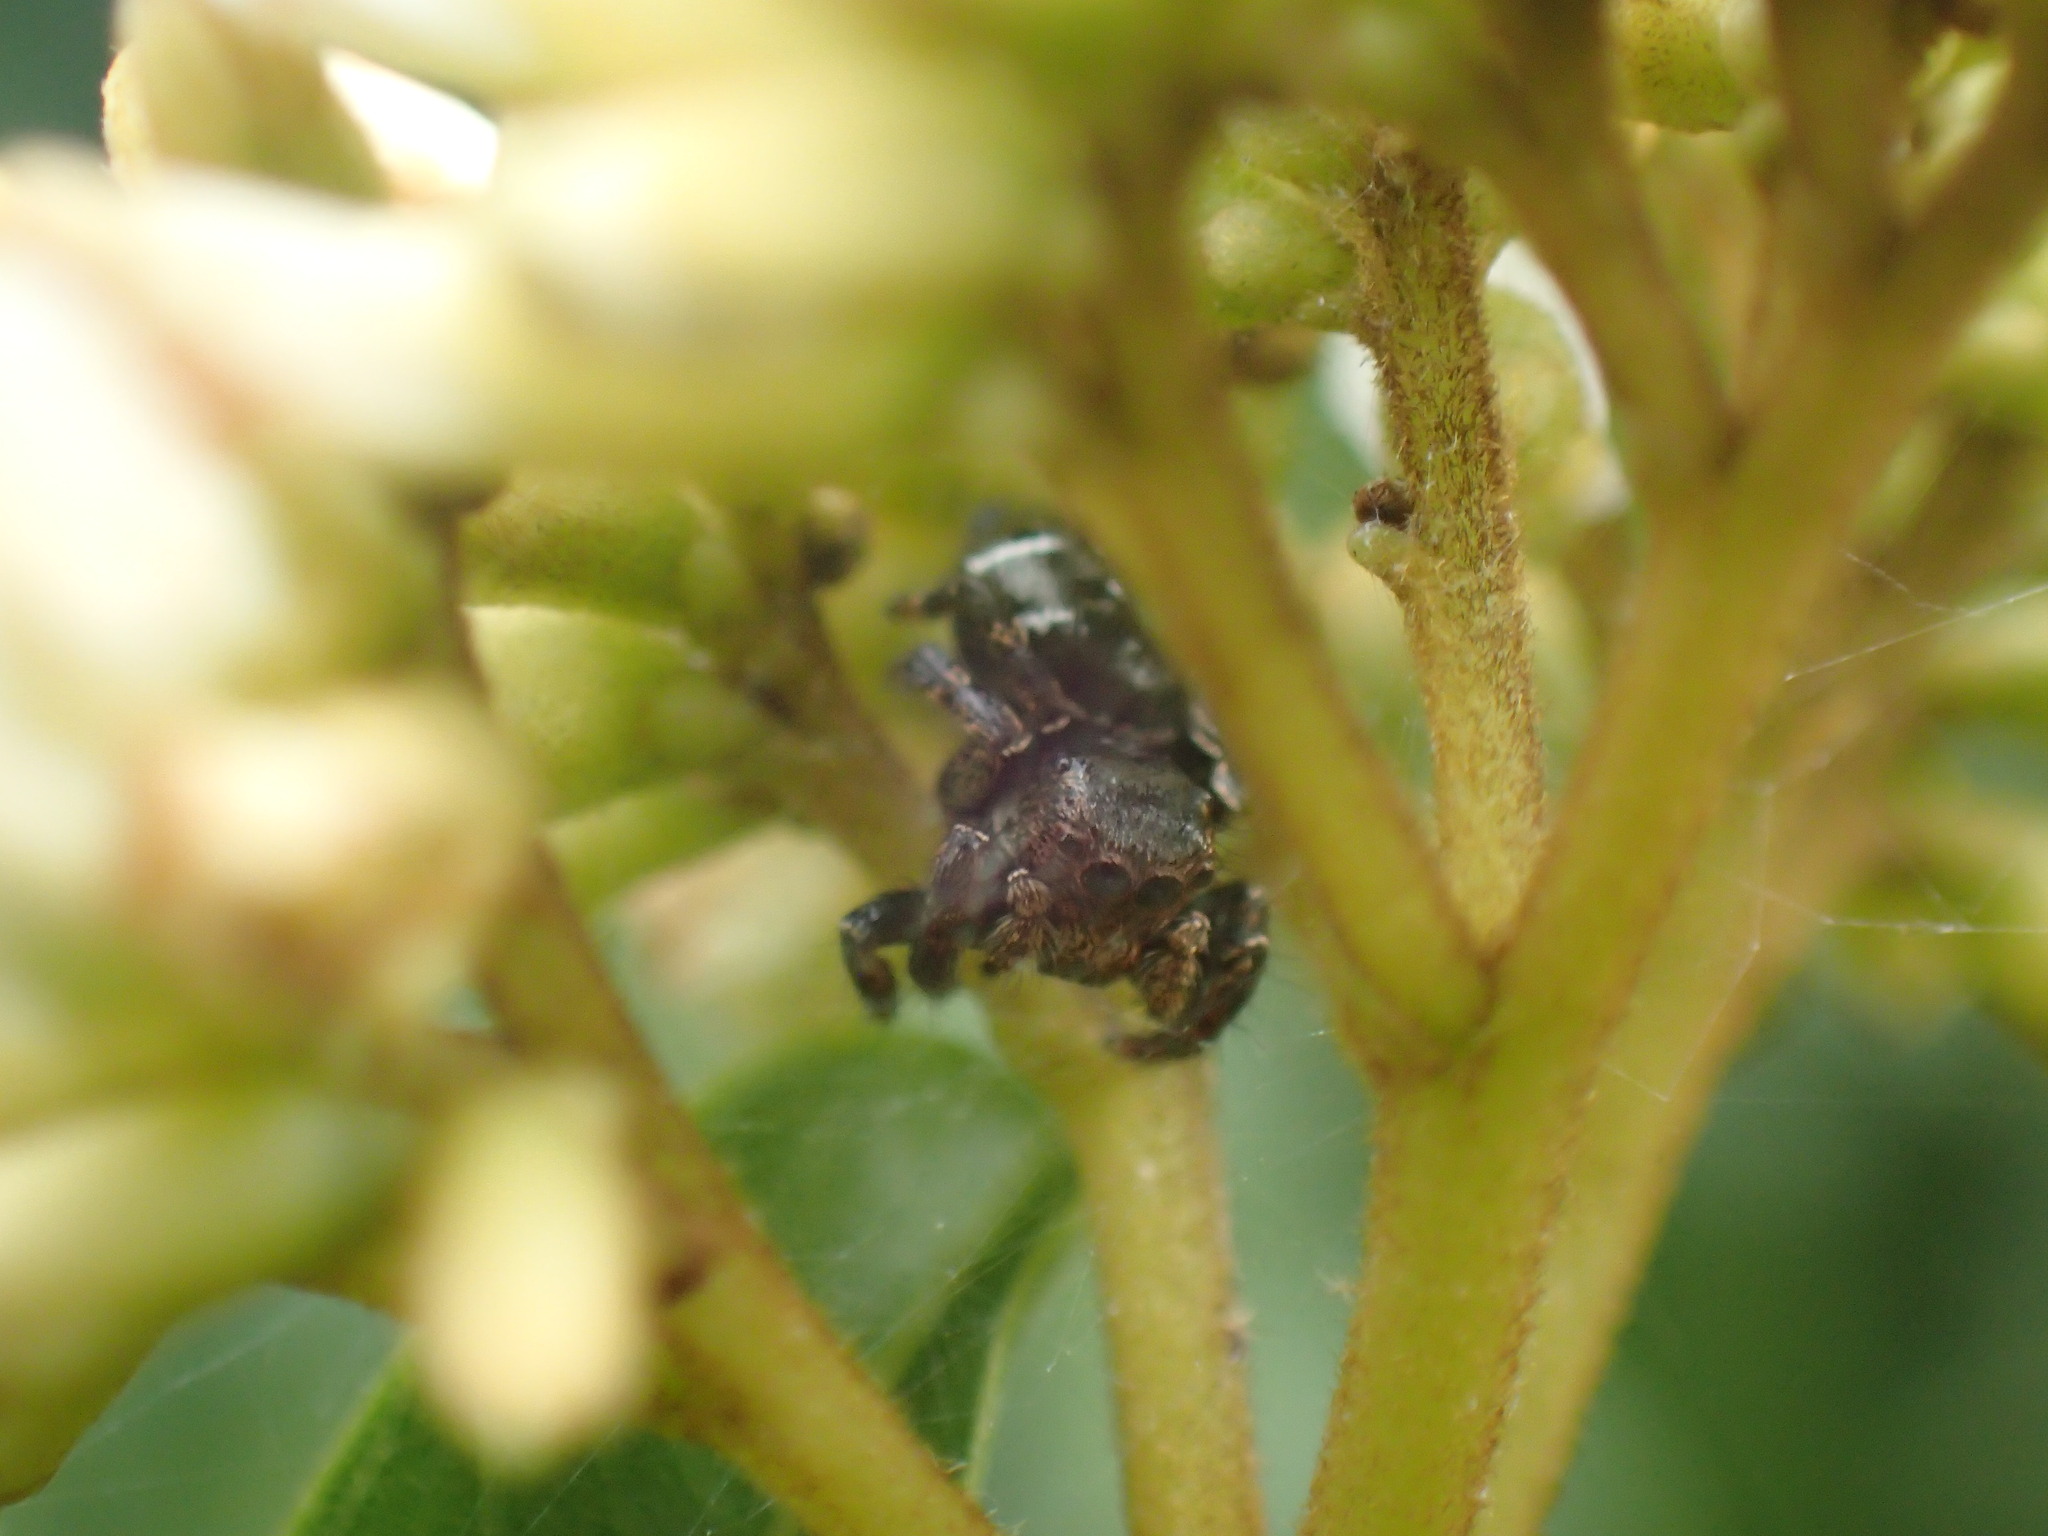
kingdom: Animalia
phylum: Arthropoda
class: Arachnida
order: Araneae
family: Salticidae
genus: Baryphas
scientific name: Baryphas ahenus
